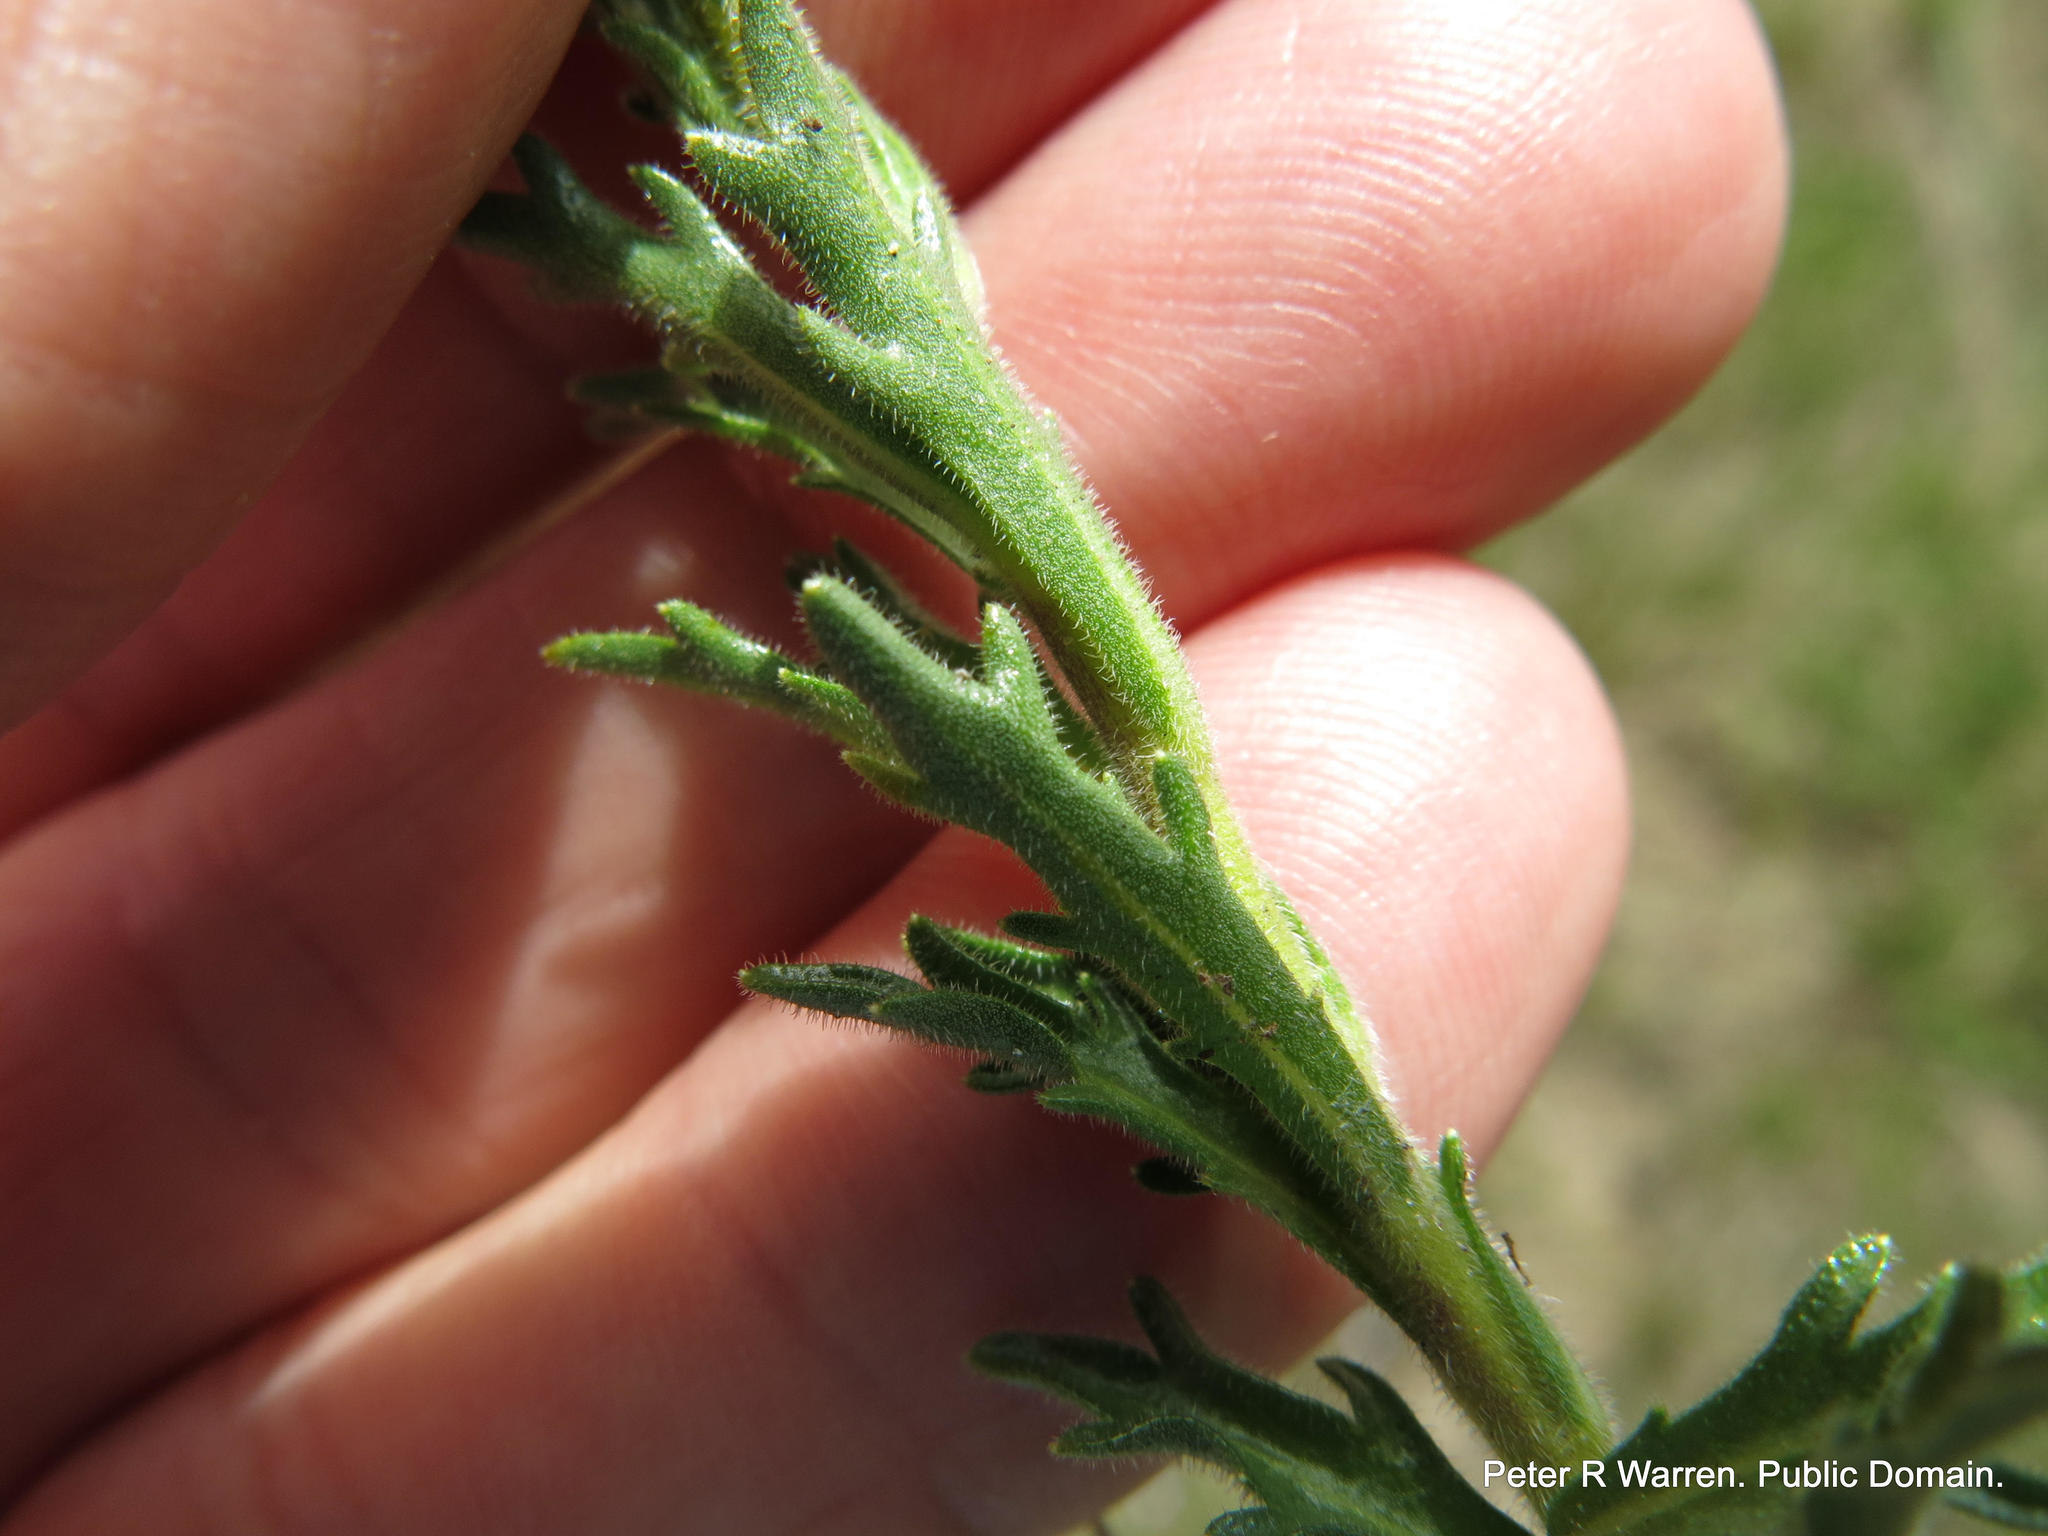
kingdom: Plantae
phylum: Tracheophyta
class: Magnoliopsida
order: Asterales
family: Campanulaceae
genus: Lobelia
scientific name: Lobelia tomentosa
